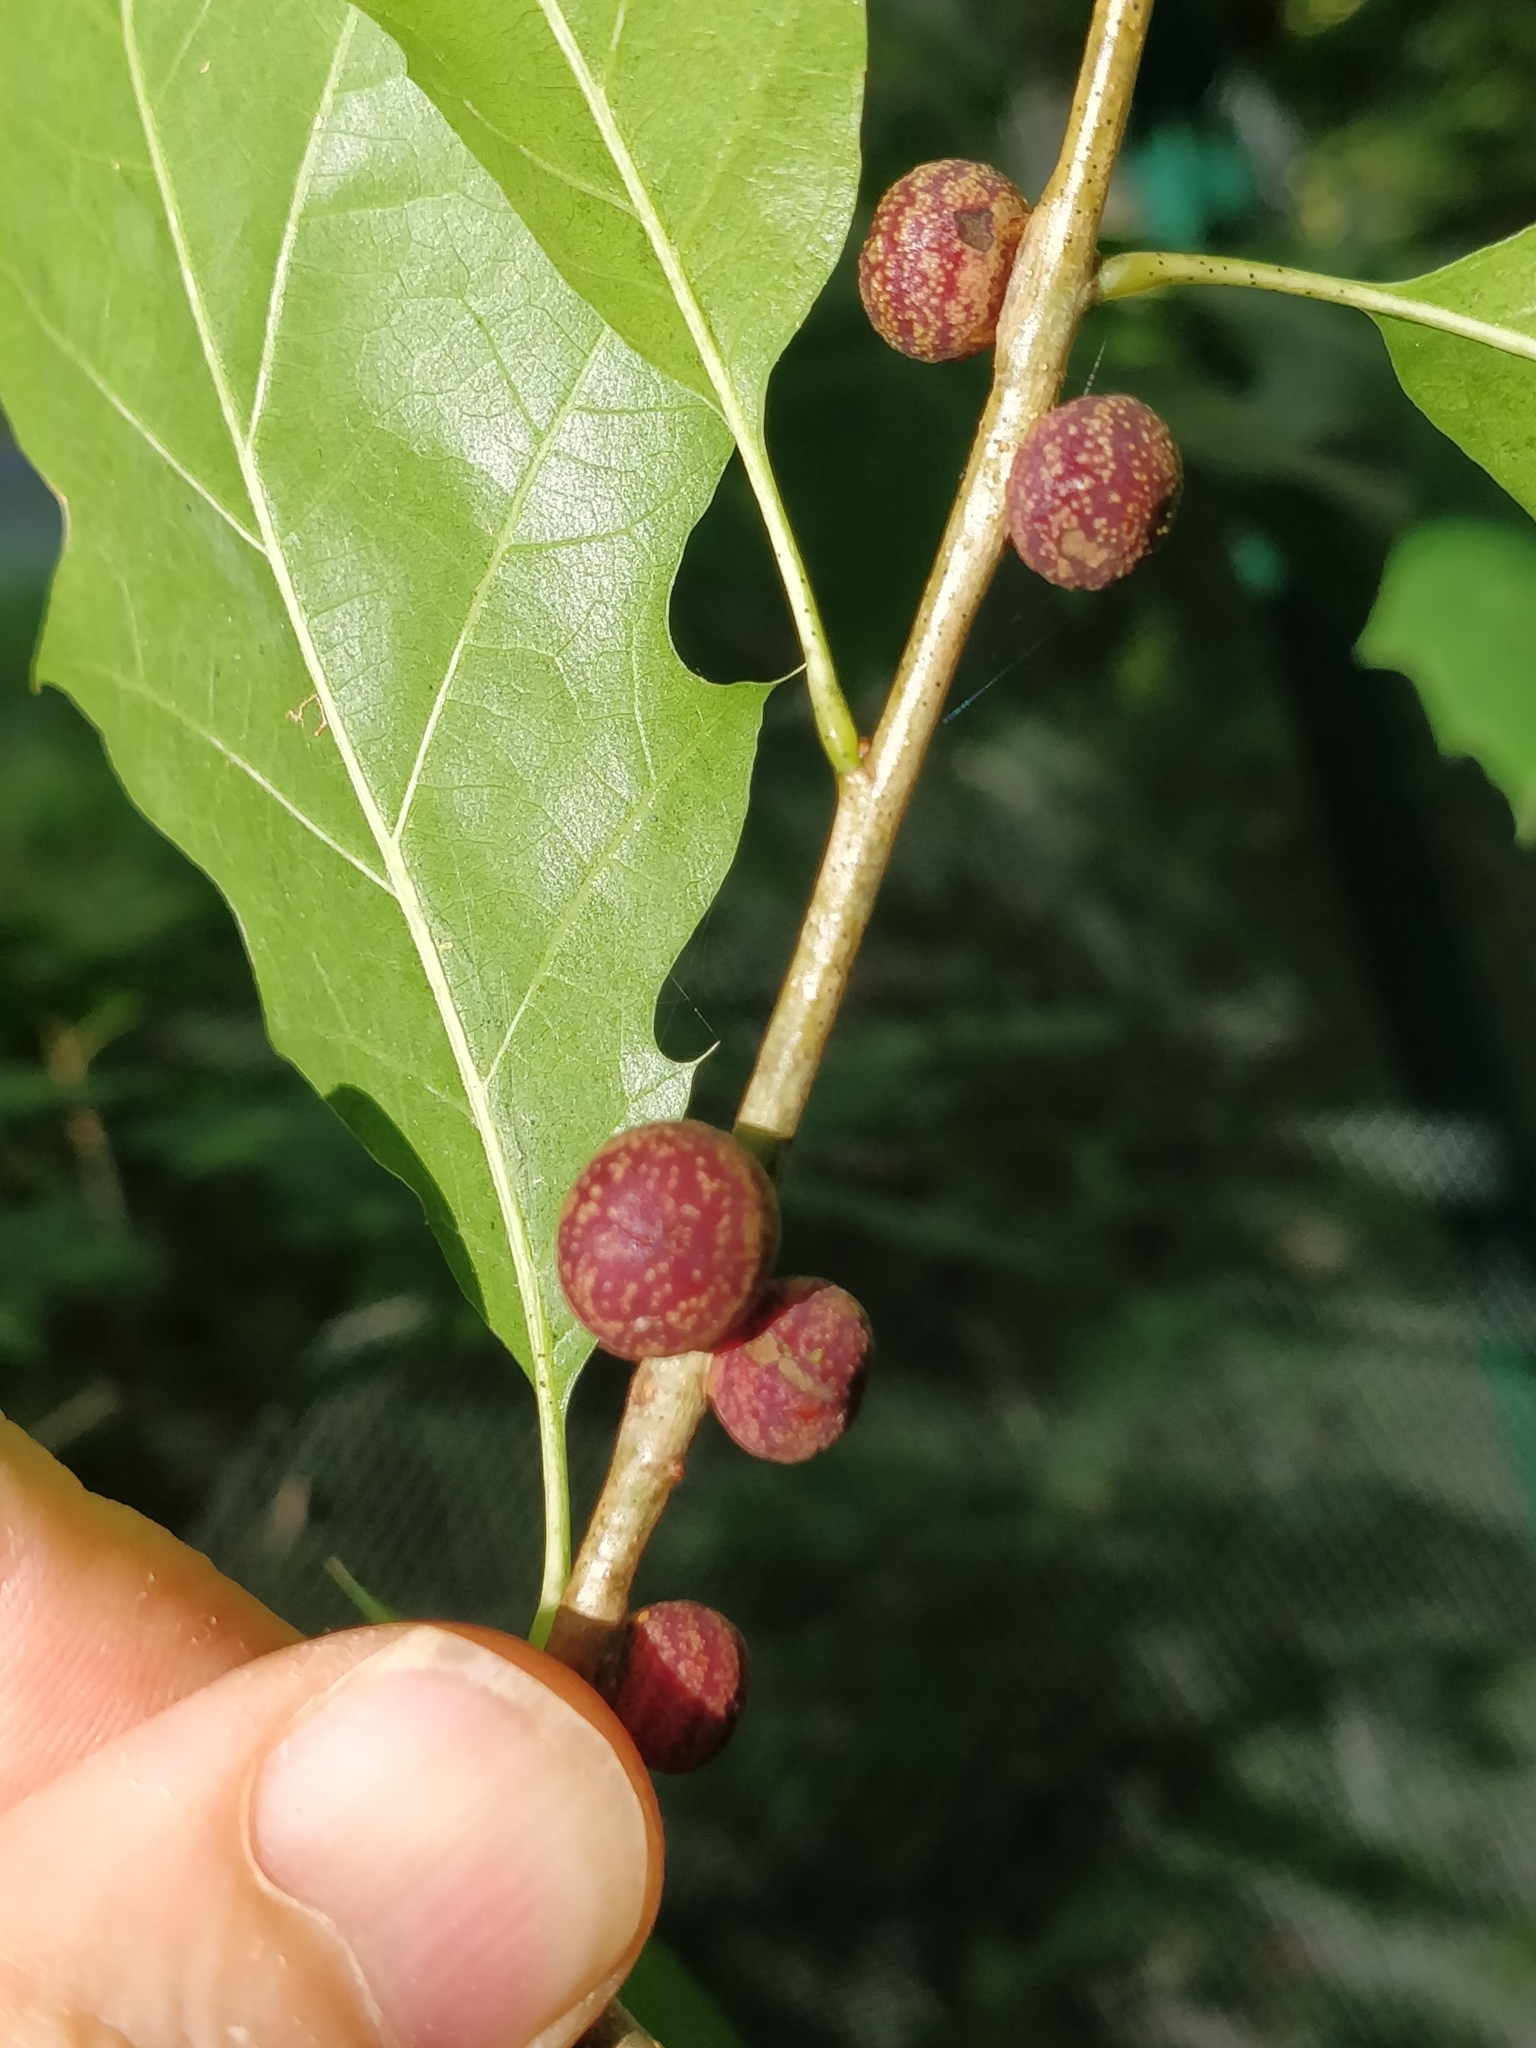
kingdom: Animalia
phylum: Arthropoda
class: Insecta
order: Hymenoptera
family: Cynipidae
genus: Kokkocynips
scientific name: Kokkocynips imbricariae
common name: Banded bullet gall wasp
